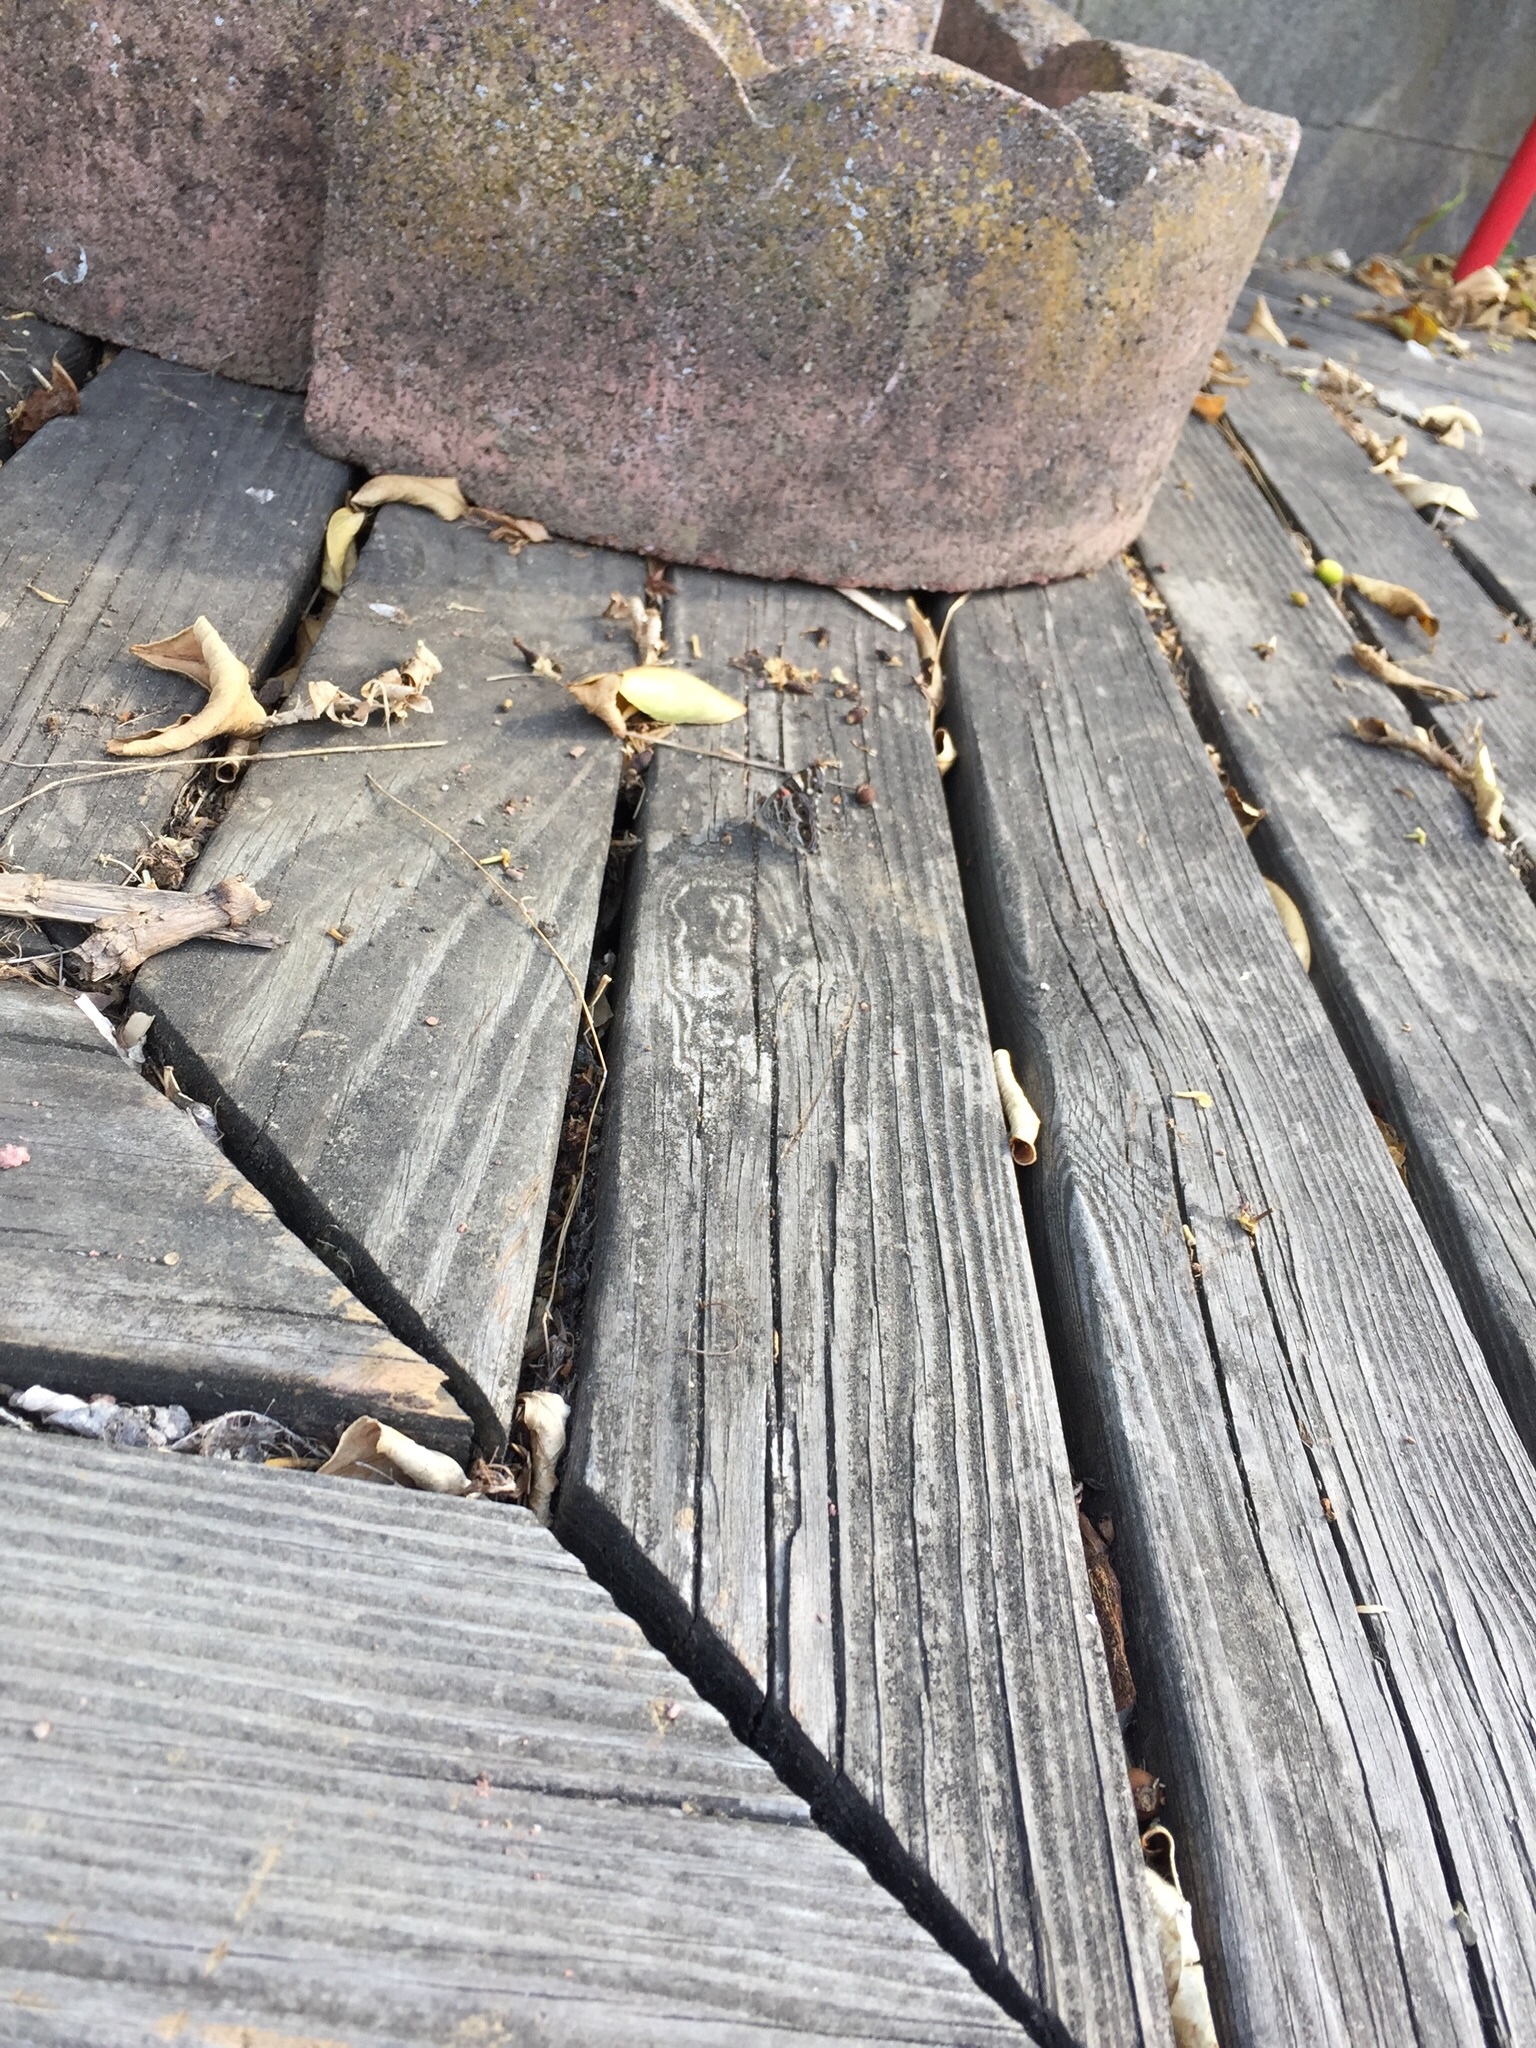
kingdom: Animalia
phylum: Arthropoda
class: Insecta
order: Lepidoptera
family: Nymphalidae
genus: Vanessa
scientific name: Vanessa virginiensis
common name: American lady
